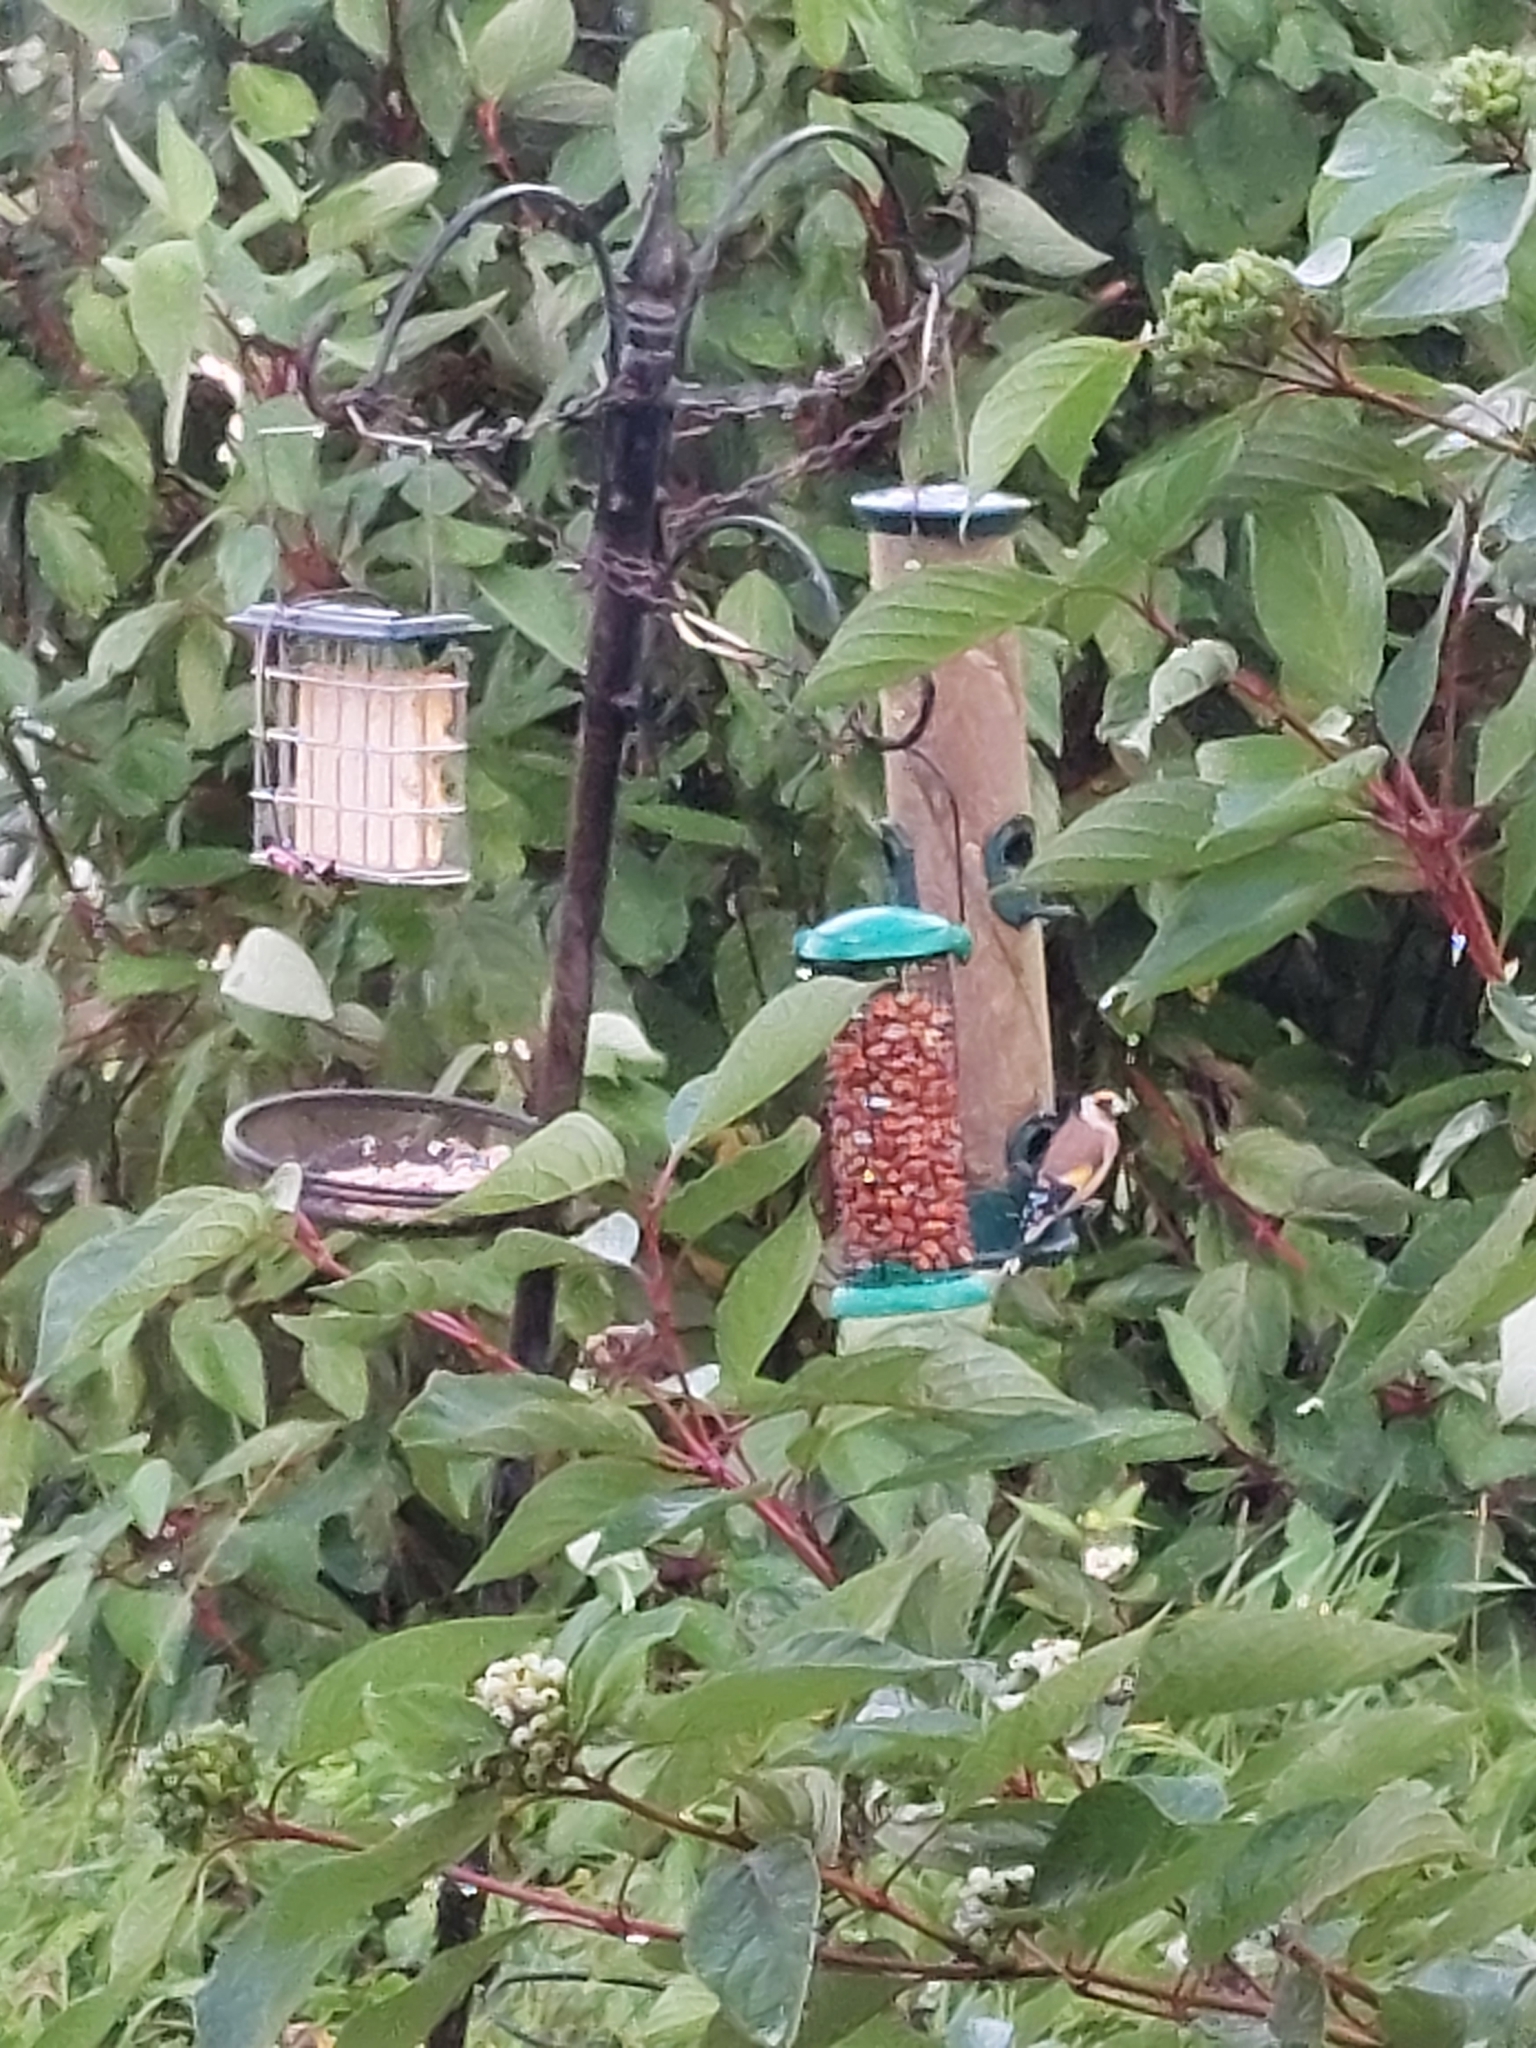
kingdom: Animalia
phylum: Chordata
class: Aves
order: Passeriformes
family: Fringillidae
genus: Carduelis
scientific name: Carduelis carduelis
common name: European goldfinch
